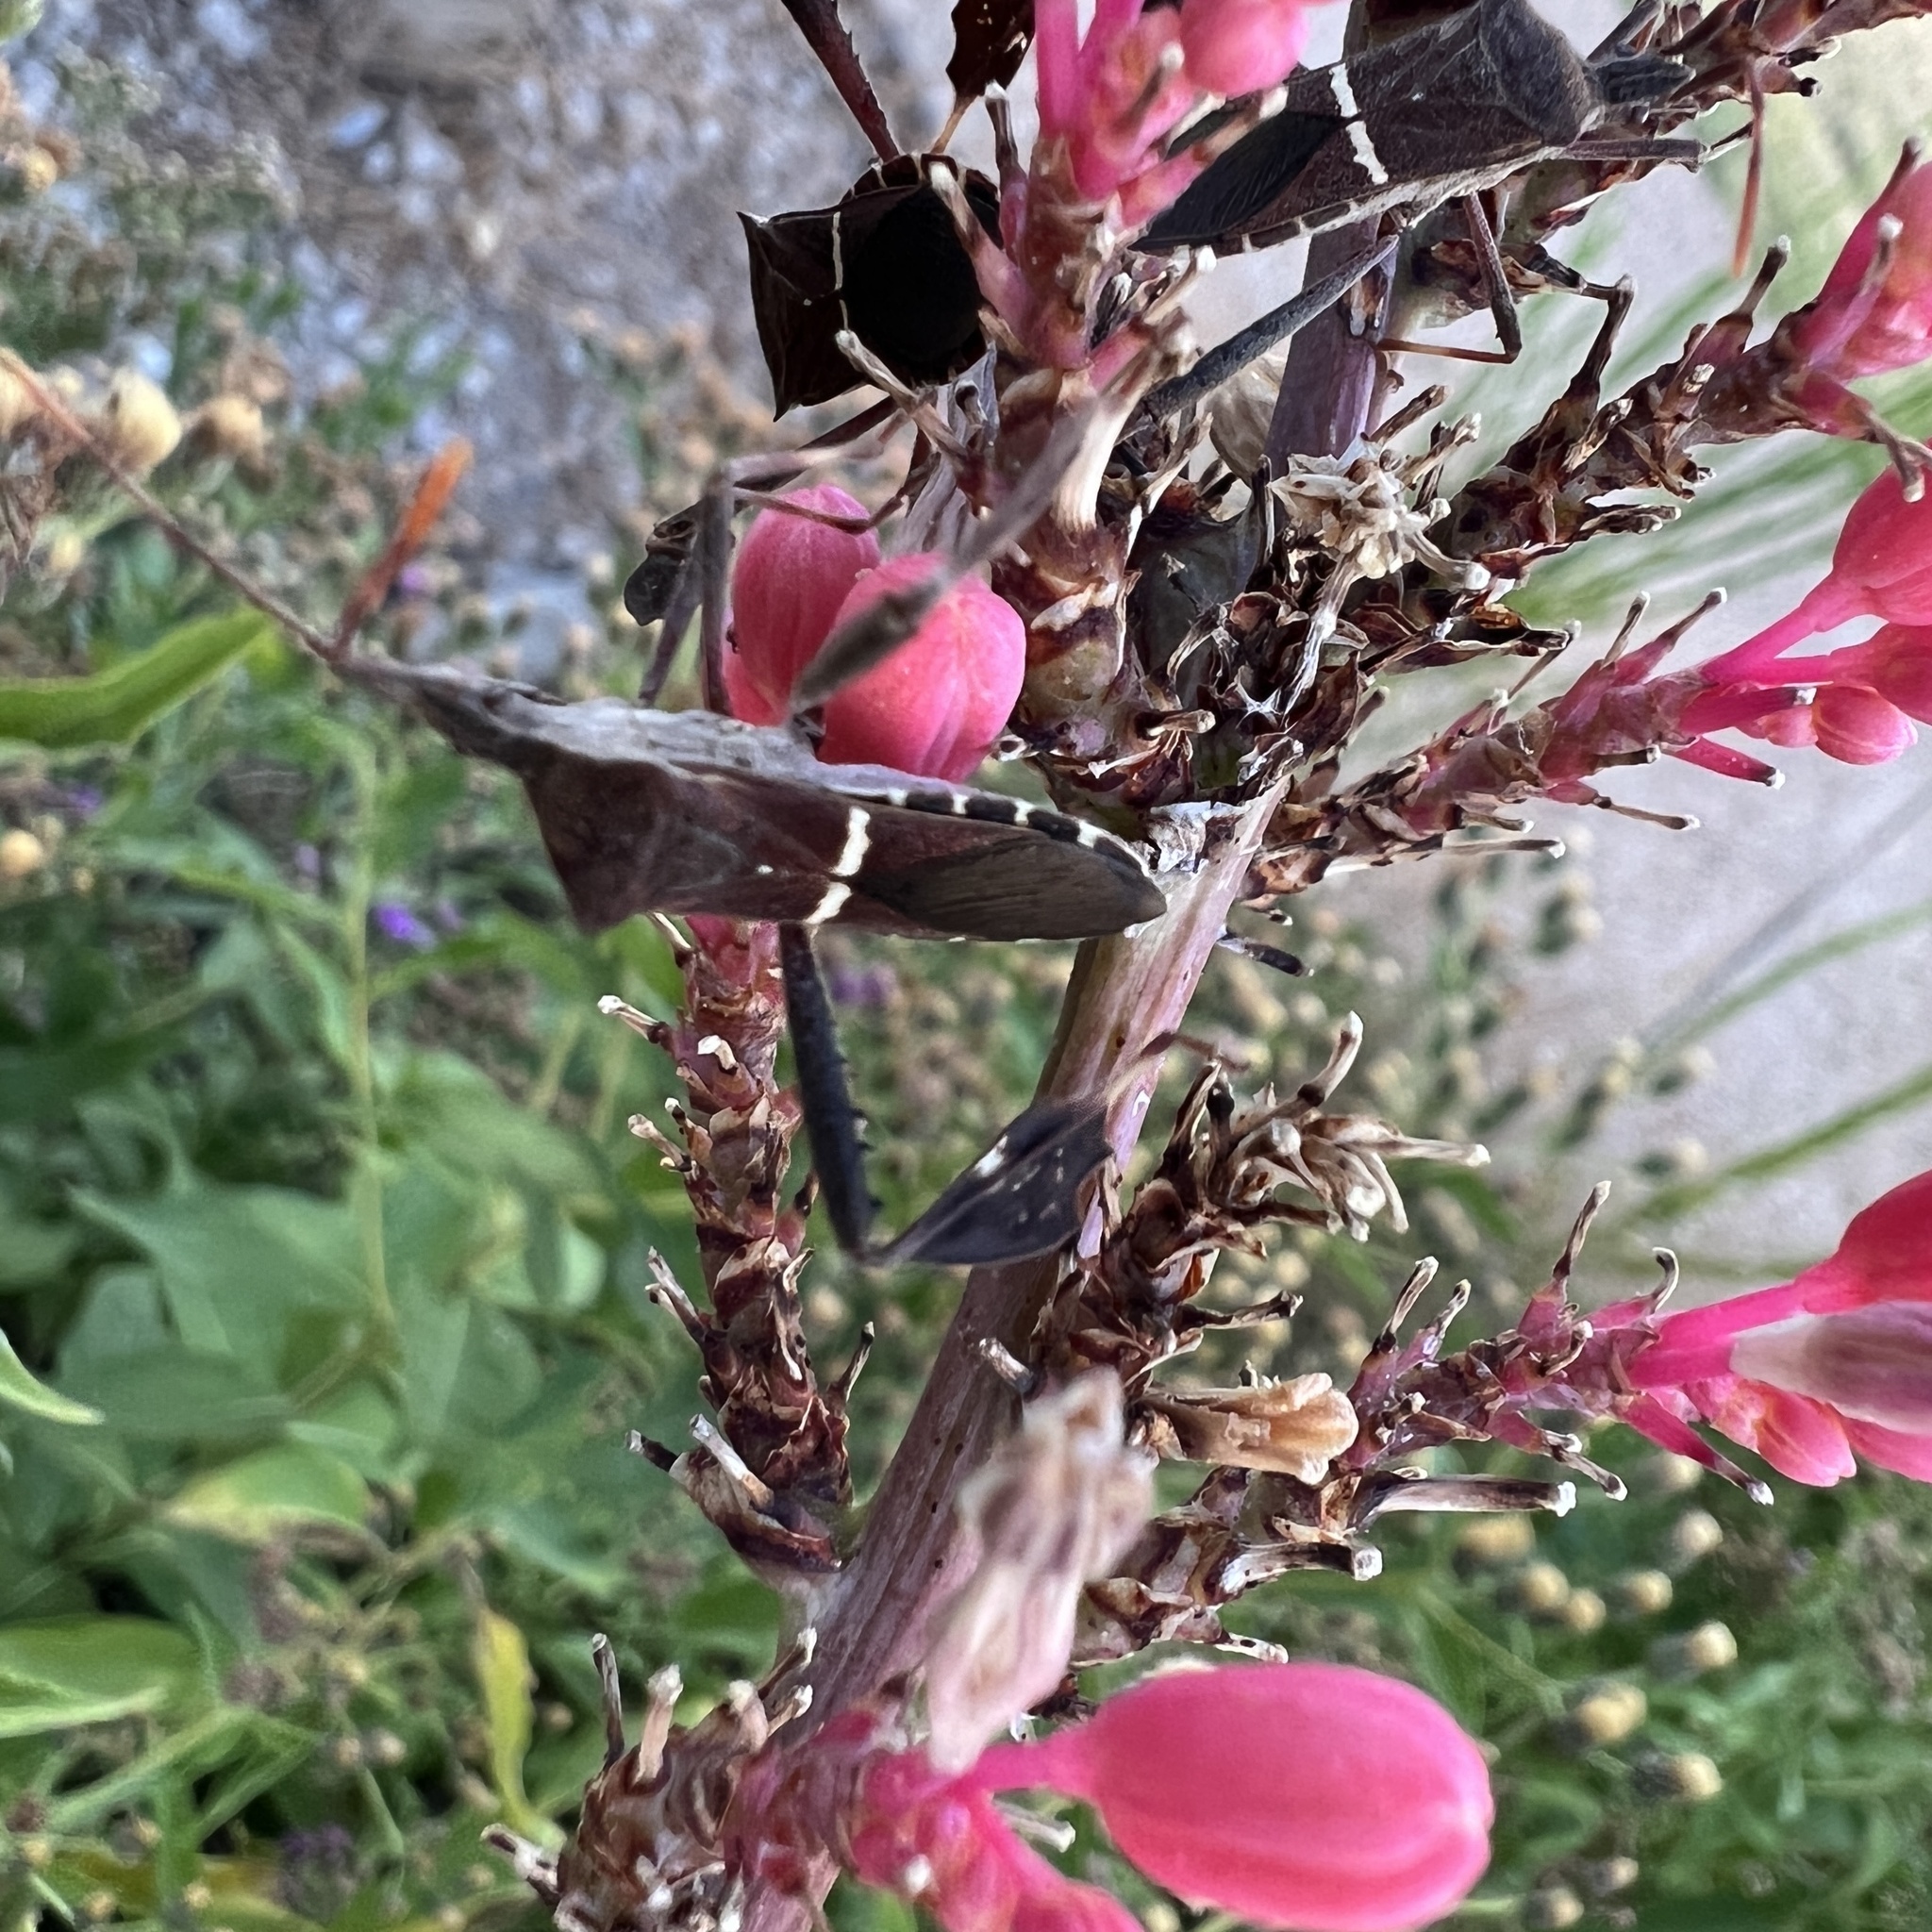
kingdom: Animalia
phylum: Arthropoda
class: Insecta
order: Hemiptera
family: Coreidae
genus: Leptoglossus
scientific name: Leptoglossus phyllopus
